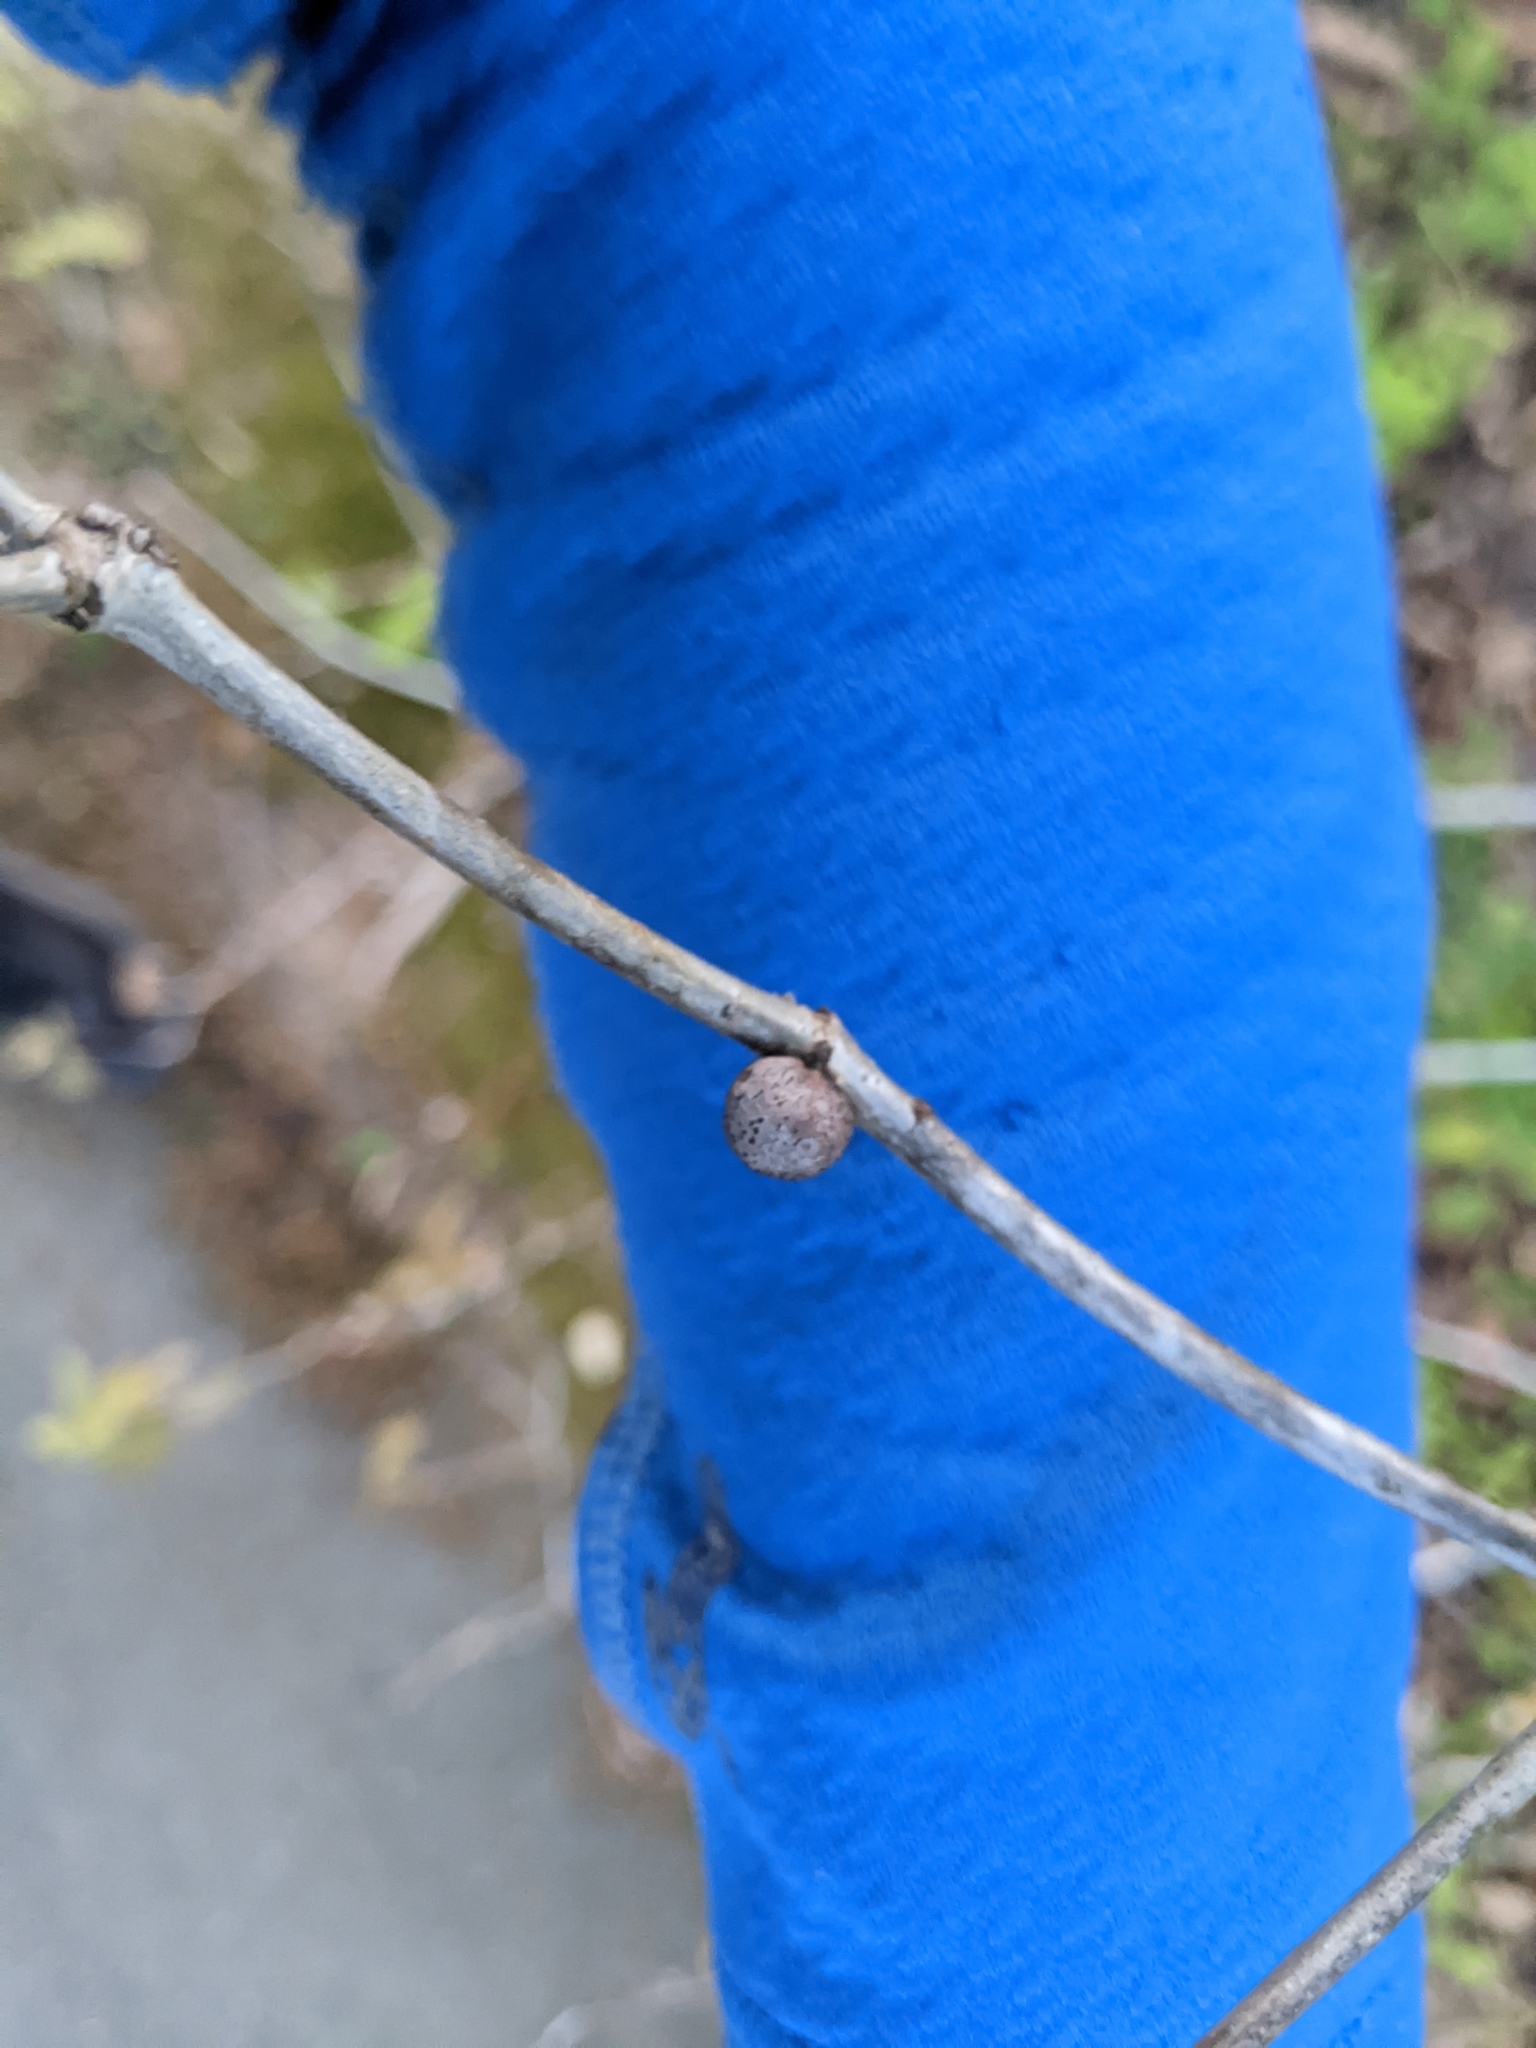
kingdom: Animalia
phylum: Arthropoda
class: Insecta
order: Hymenoptera
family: Cynipidae
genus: Disholcaspis
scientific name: Disholcaspis quercusglobulus
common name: Round bullet gall wasp
